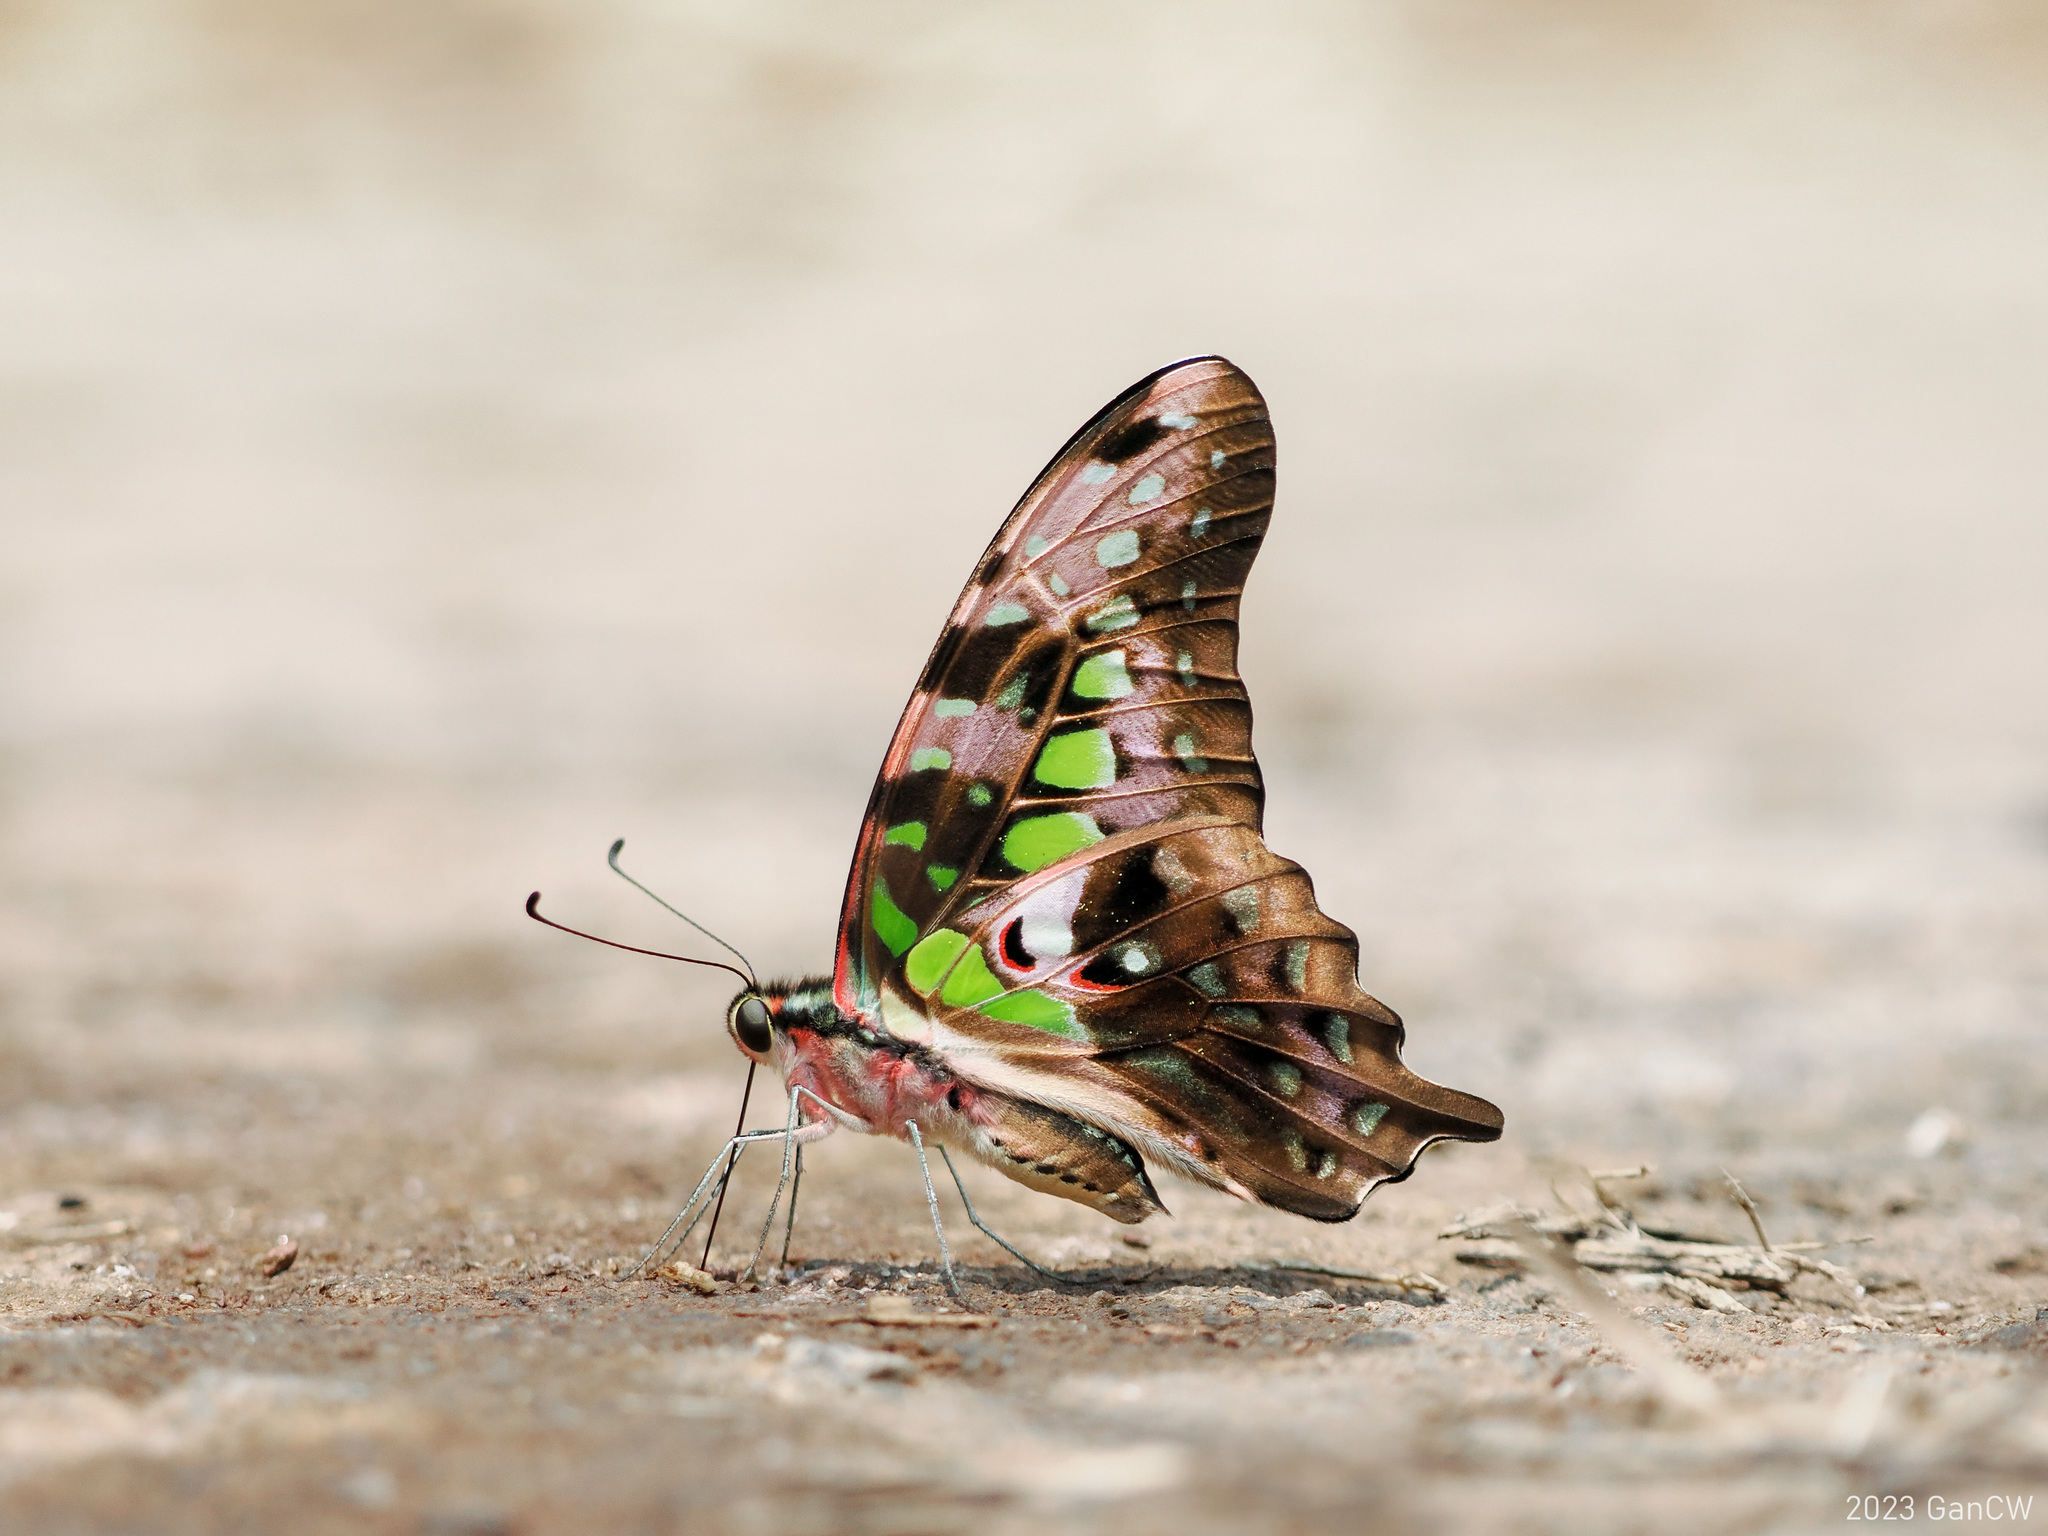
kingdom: Animalia
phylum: Arthropoda
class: Insecta
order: Lepidoptera
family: Papilionidae
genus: Graphium
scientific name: Graphium agamemnon
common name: Tailed jay
